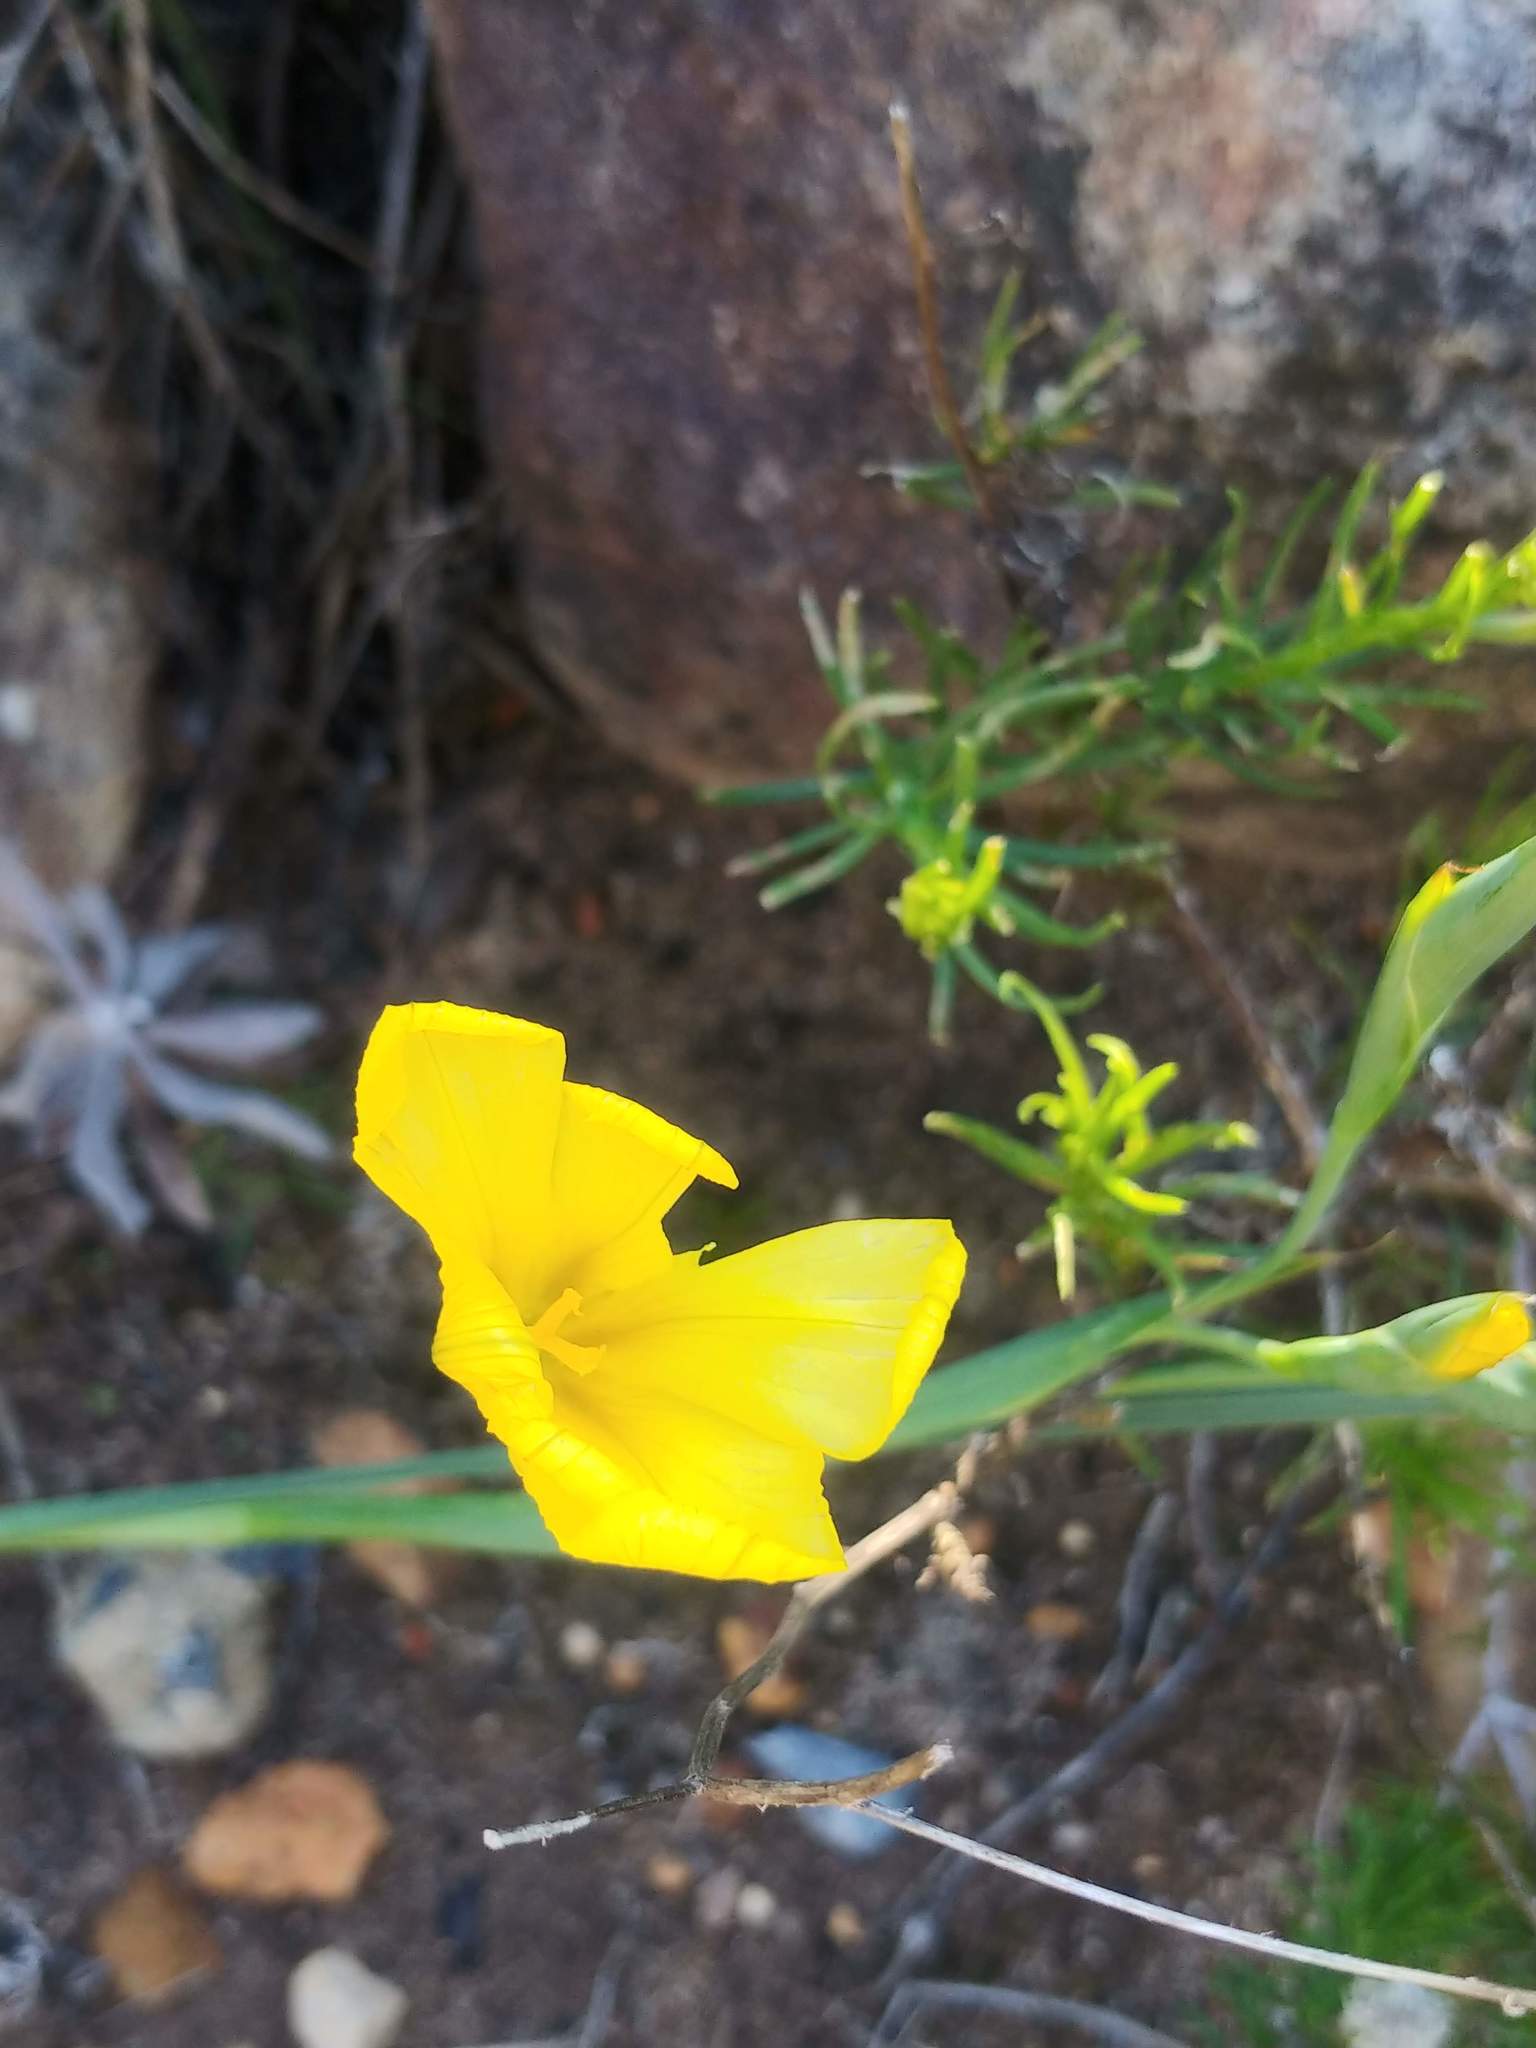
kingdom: Plantae
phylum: Tracheophyta
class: Liliopsida
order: Asparagales
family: Iridaceae
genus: Moraea
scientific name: Moraea ochroleuca
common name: Red tulp
